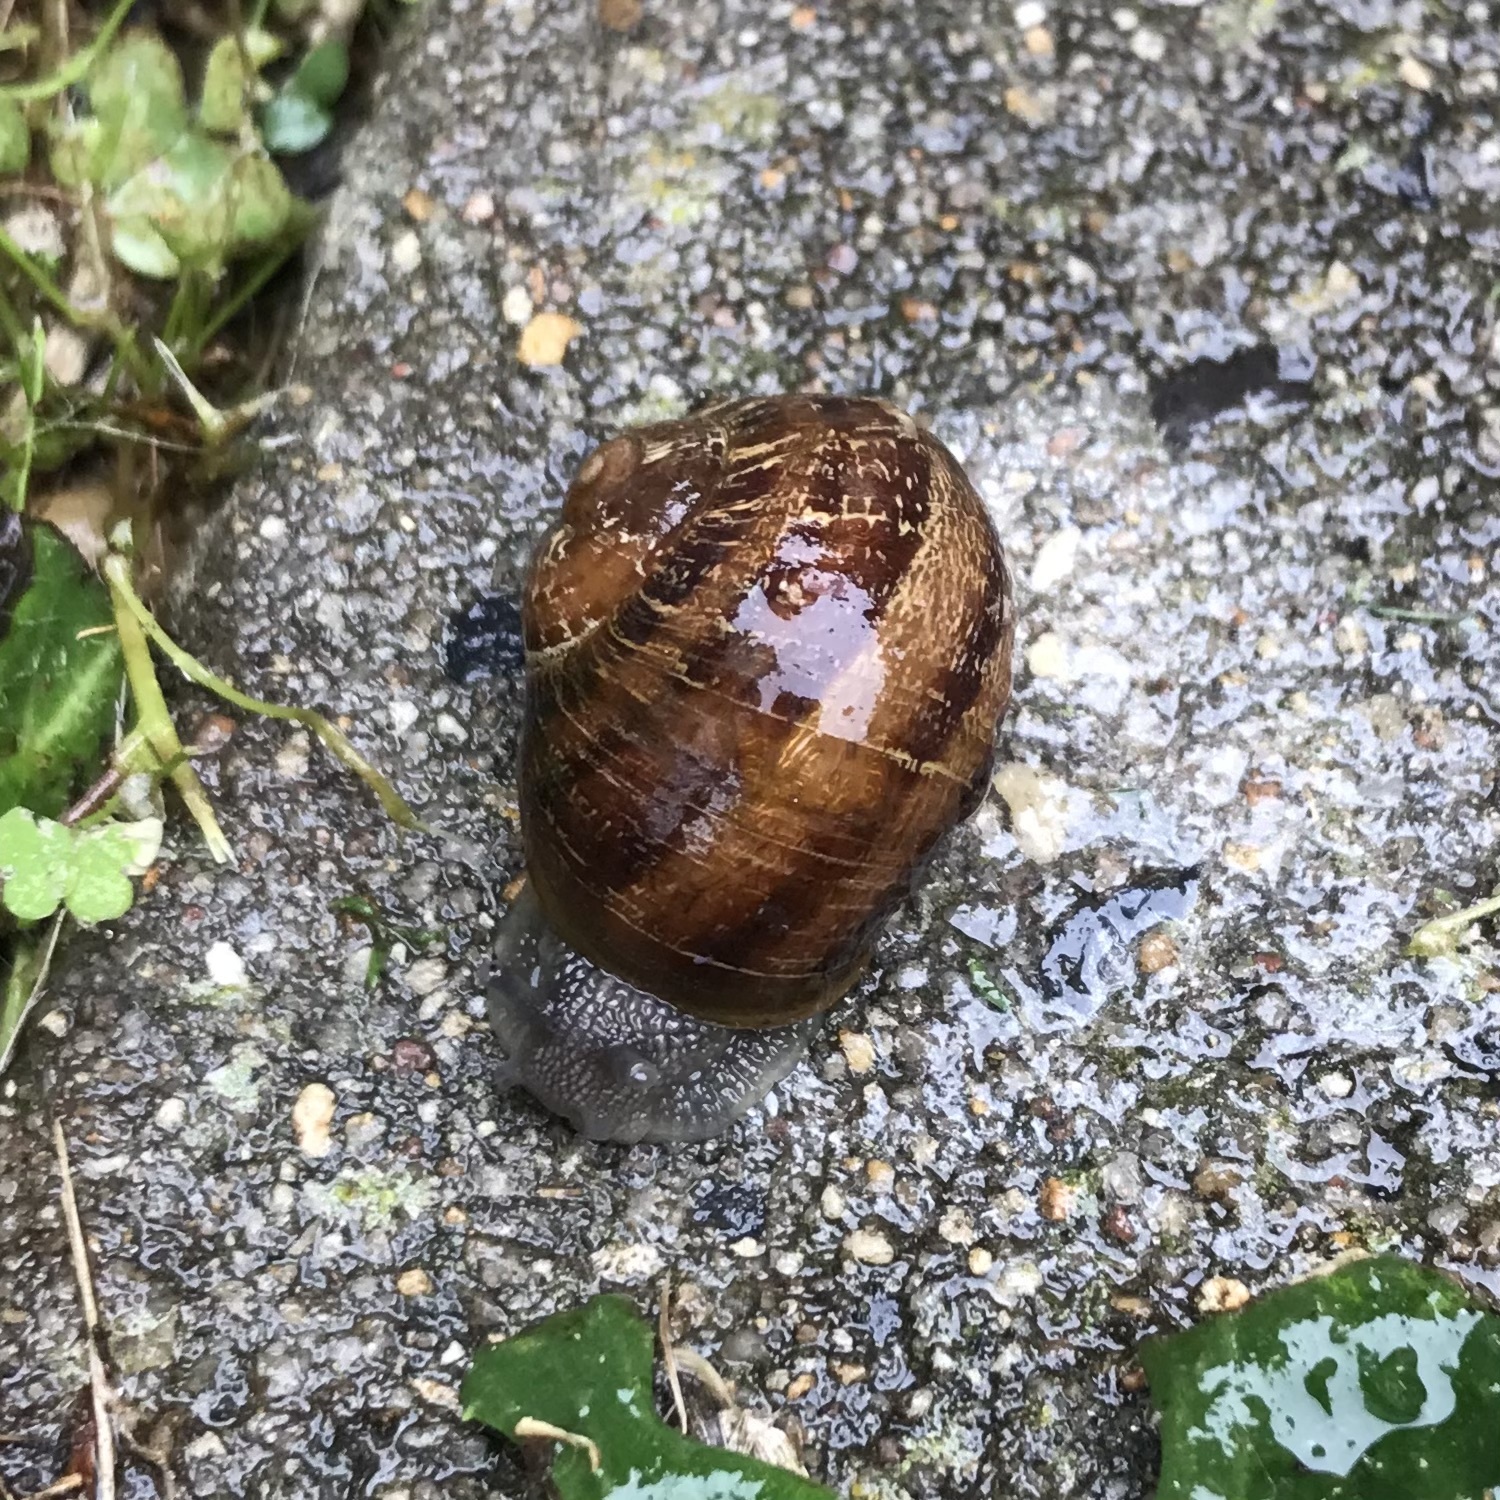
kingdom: Animalia
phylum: Mollusca
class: Gastropoda
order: Stylommatophora
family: Helicidae
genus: Cornu
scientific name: Cornu aspersum
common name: Brown garden snail
